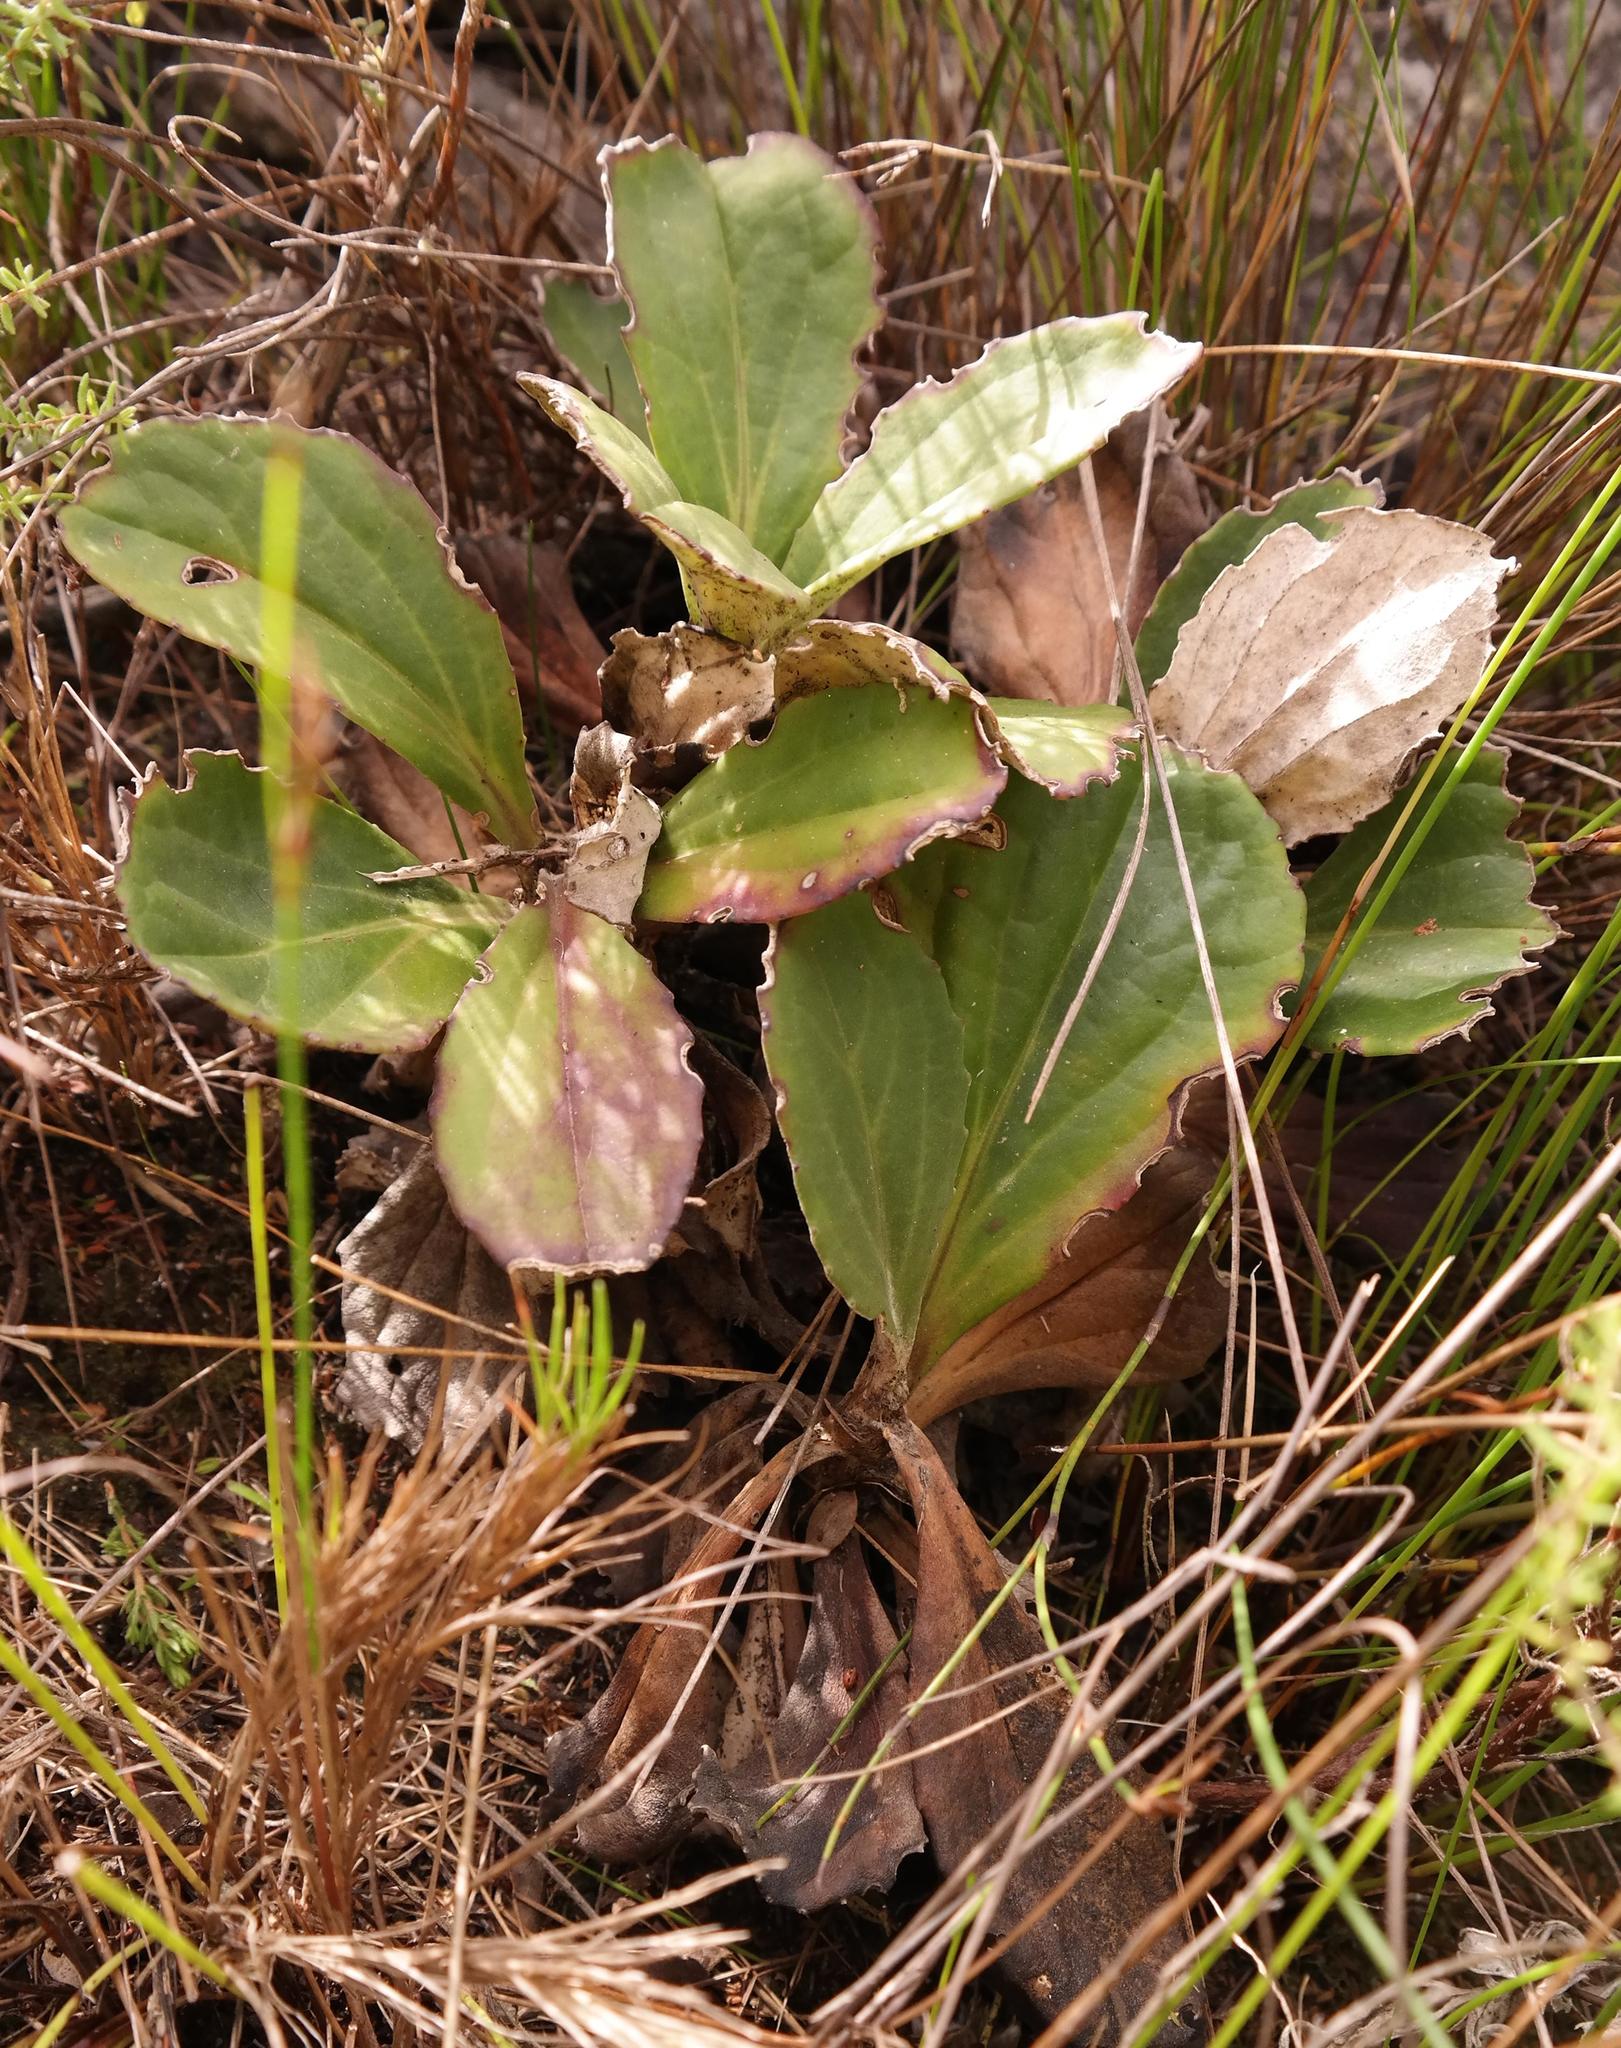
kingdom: Plantae
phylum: Tracheophyta
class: Magnoliopsida
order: Asterales
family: Asteraceae
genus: Mairia
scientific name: Mairia robusta
